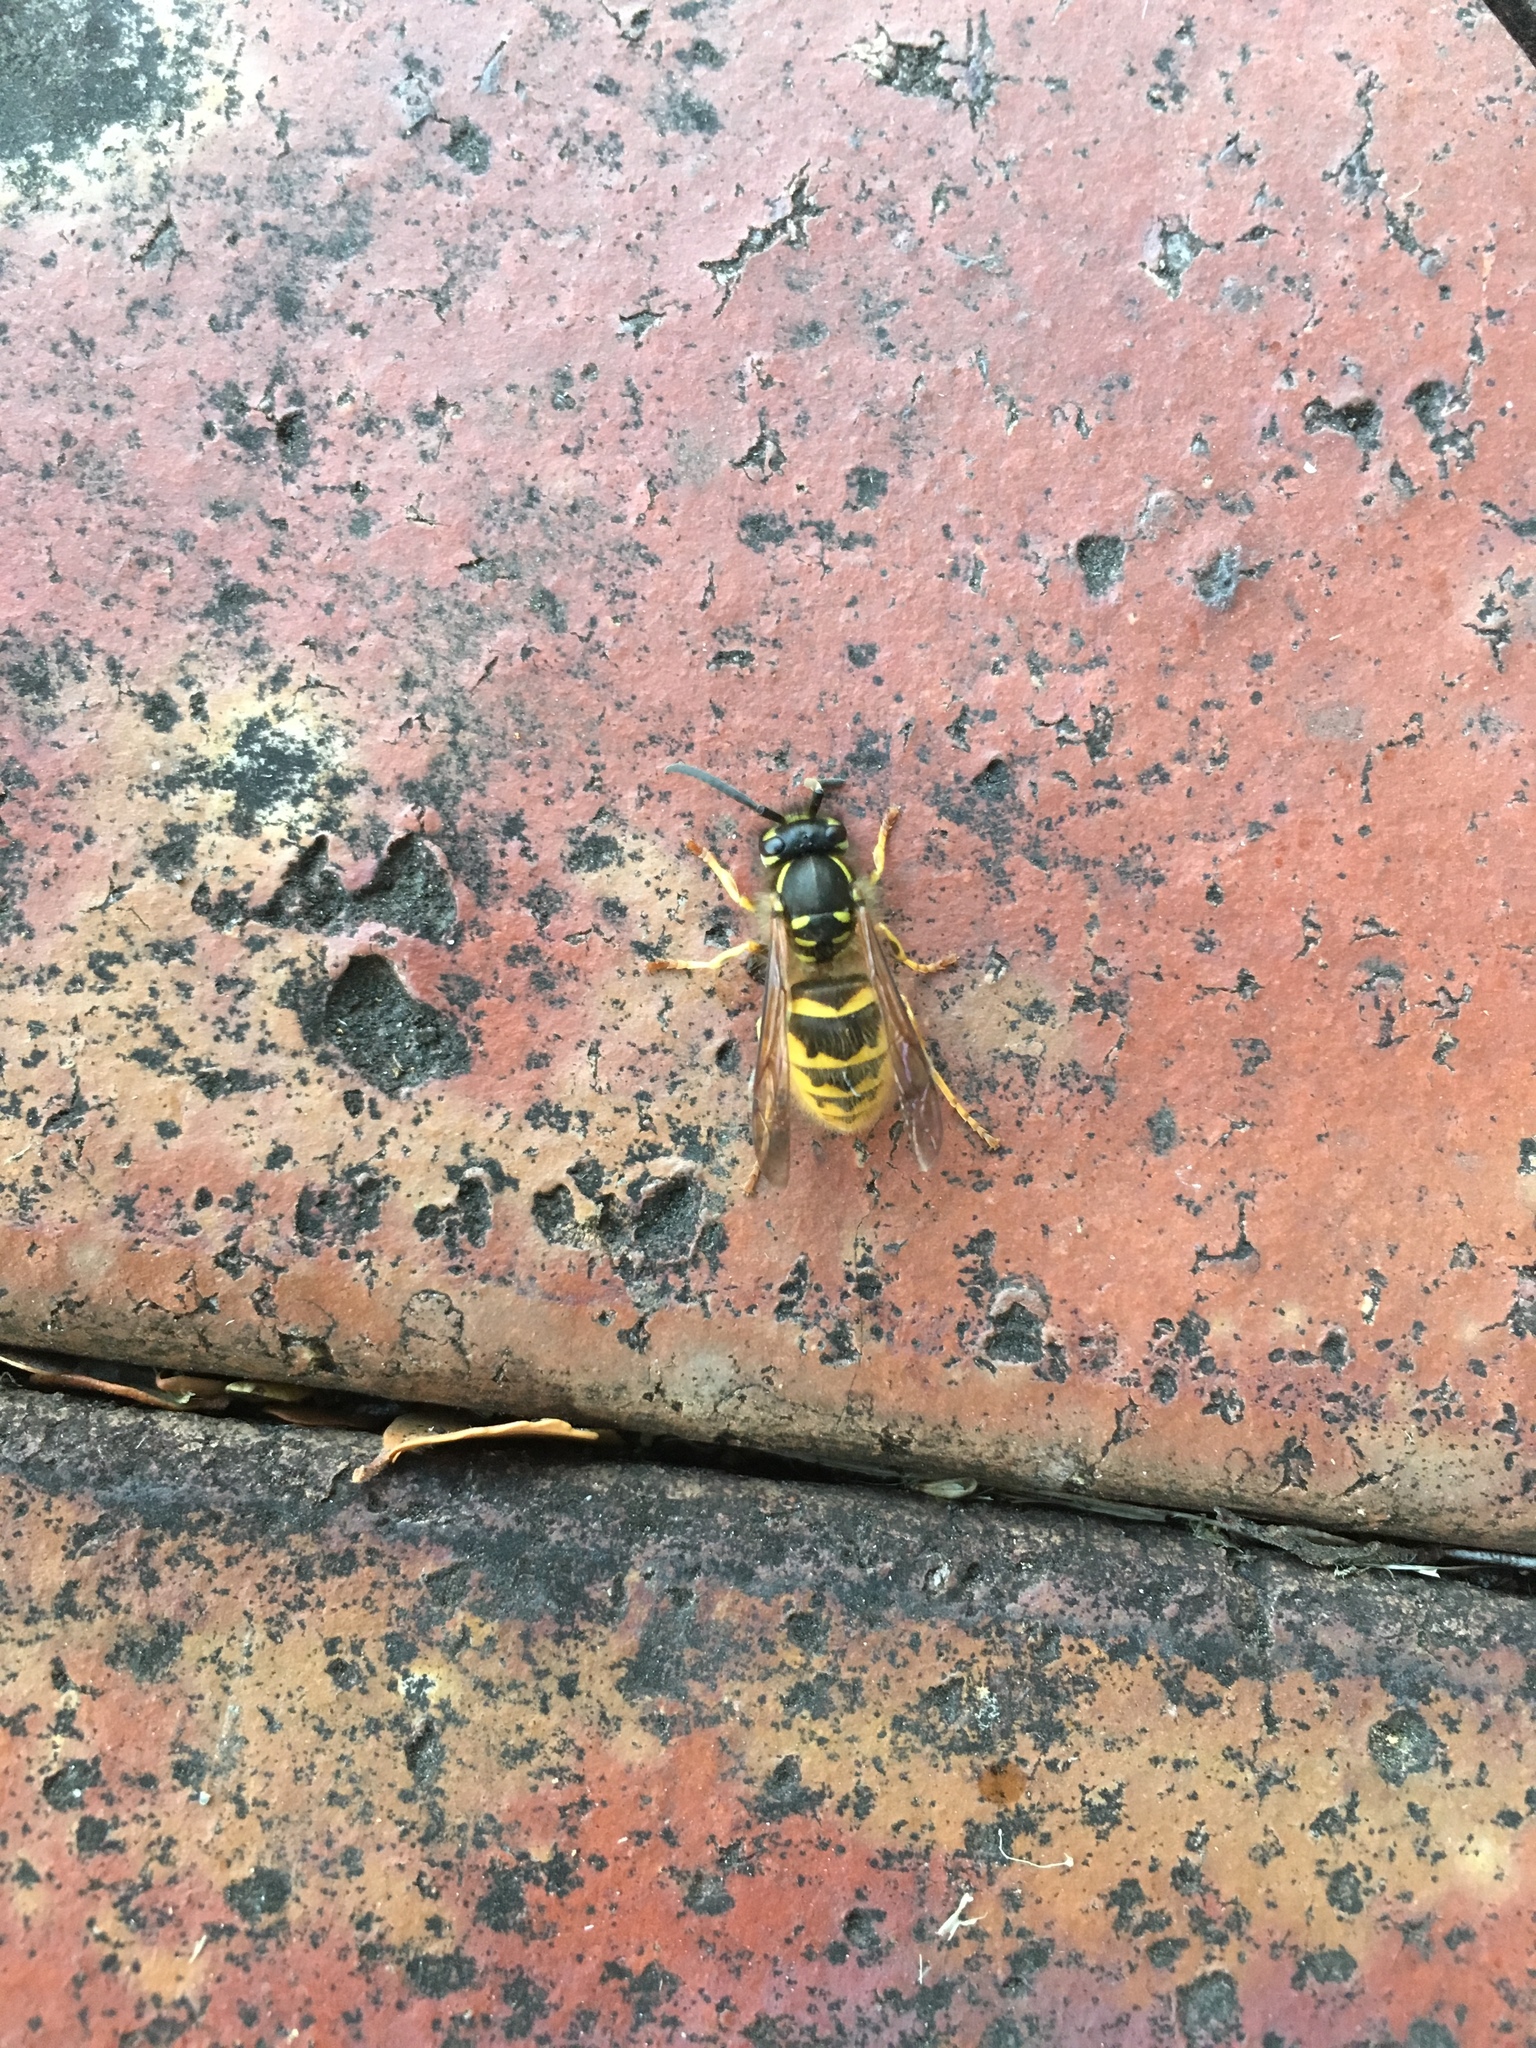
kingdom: Animalia
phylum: Arthropoda
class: Insecta
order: Hymenoptera
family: Vespidae
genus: Vespula
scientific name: Vespula vulgaris
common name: Common wasp
